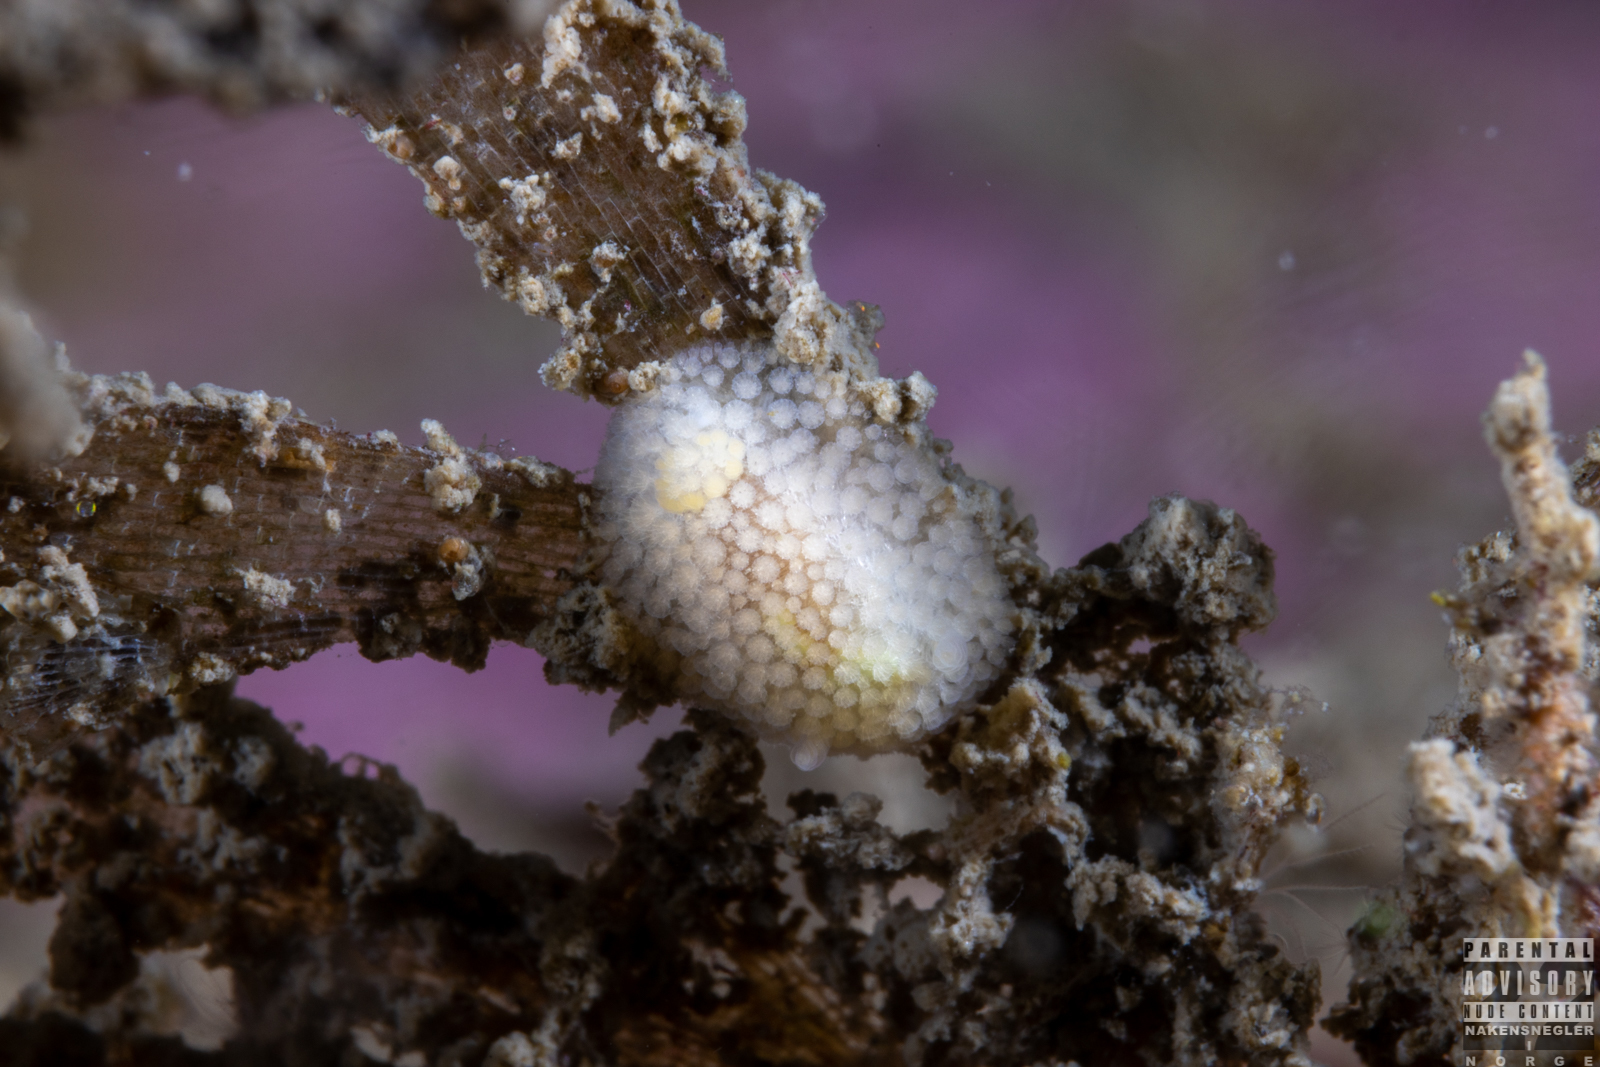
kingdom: Animalia
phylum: Mollusca
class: Gastropoda
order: Nudibranchia
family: Onchidorididae
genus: Onchidoris
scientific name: Onchidoris muricata
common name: Rough doris
